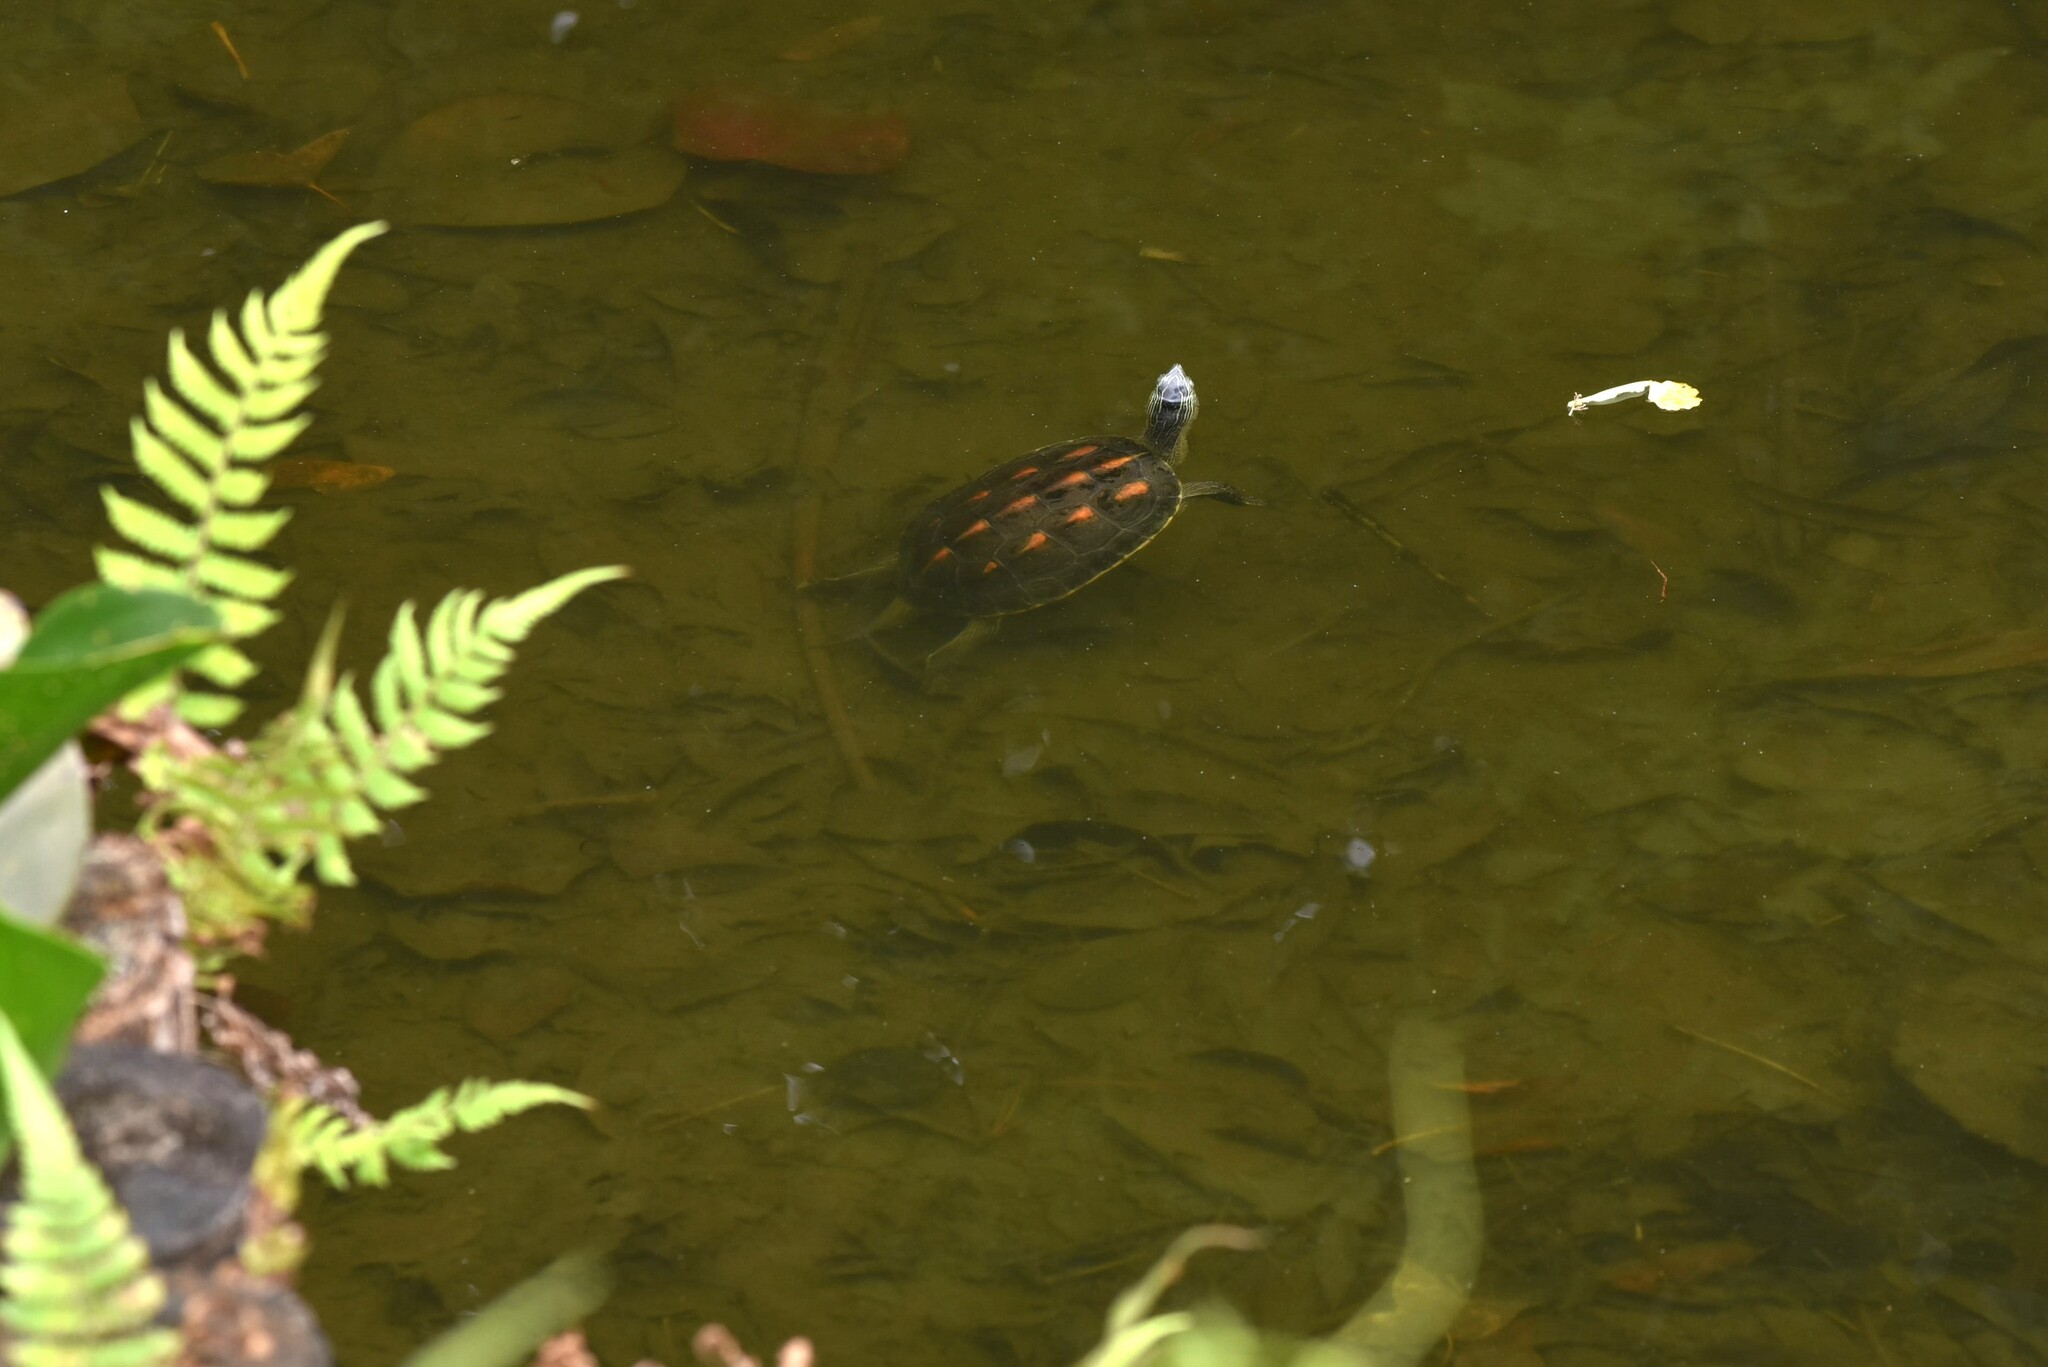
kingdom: Animalia
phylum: Chordata
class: Testudines
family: Geoemydidae
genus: Mauremys
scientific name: Mauremys sinensis
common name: Chinese stripe-necked turtle
